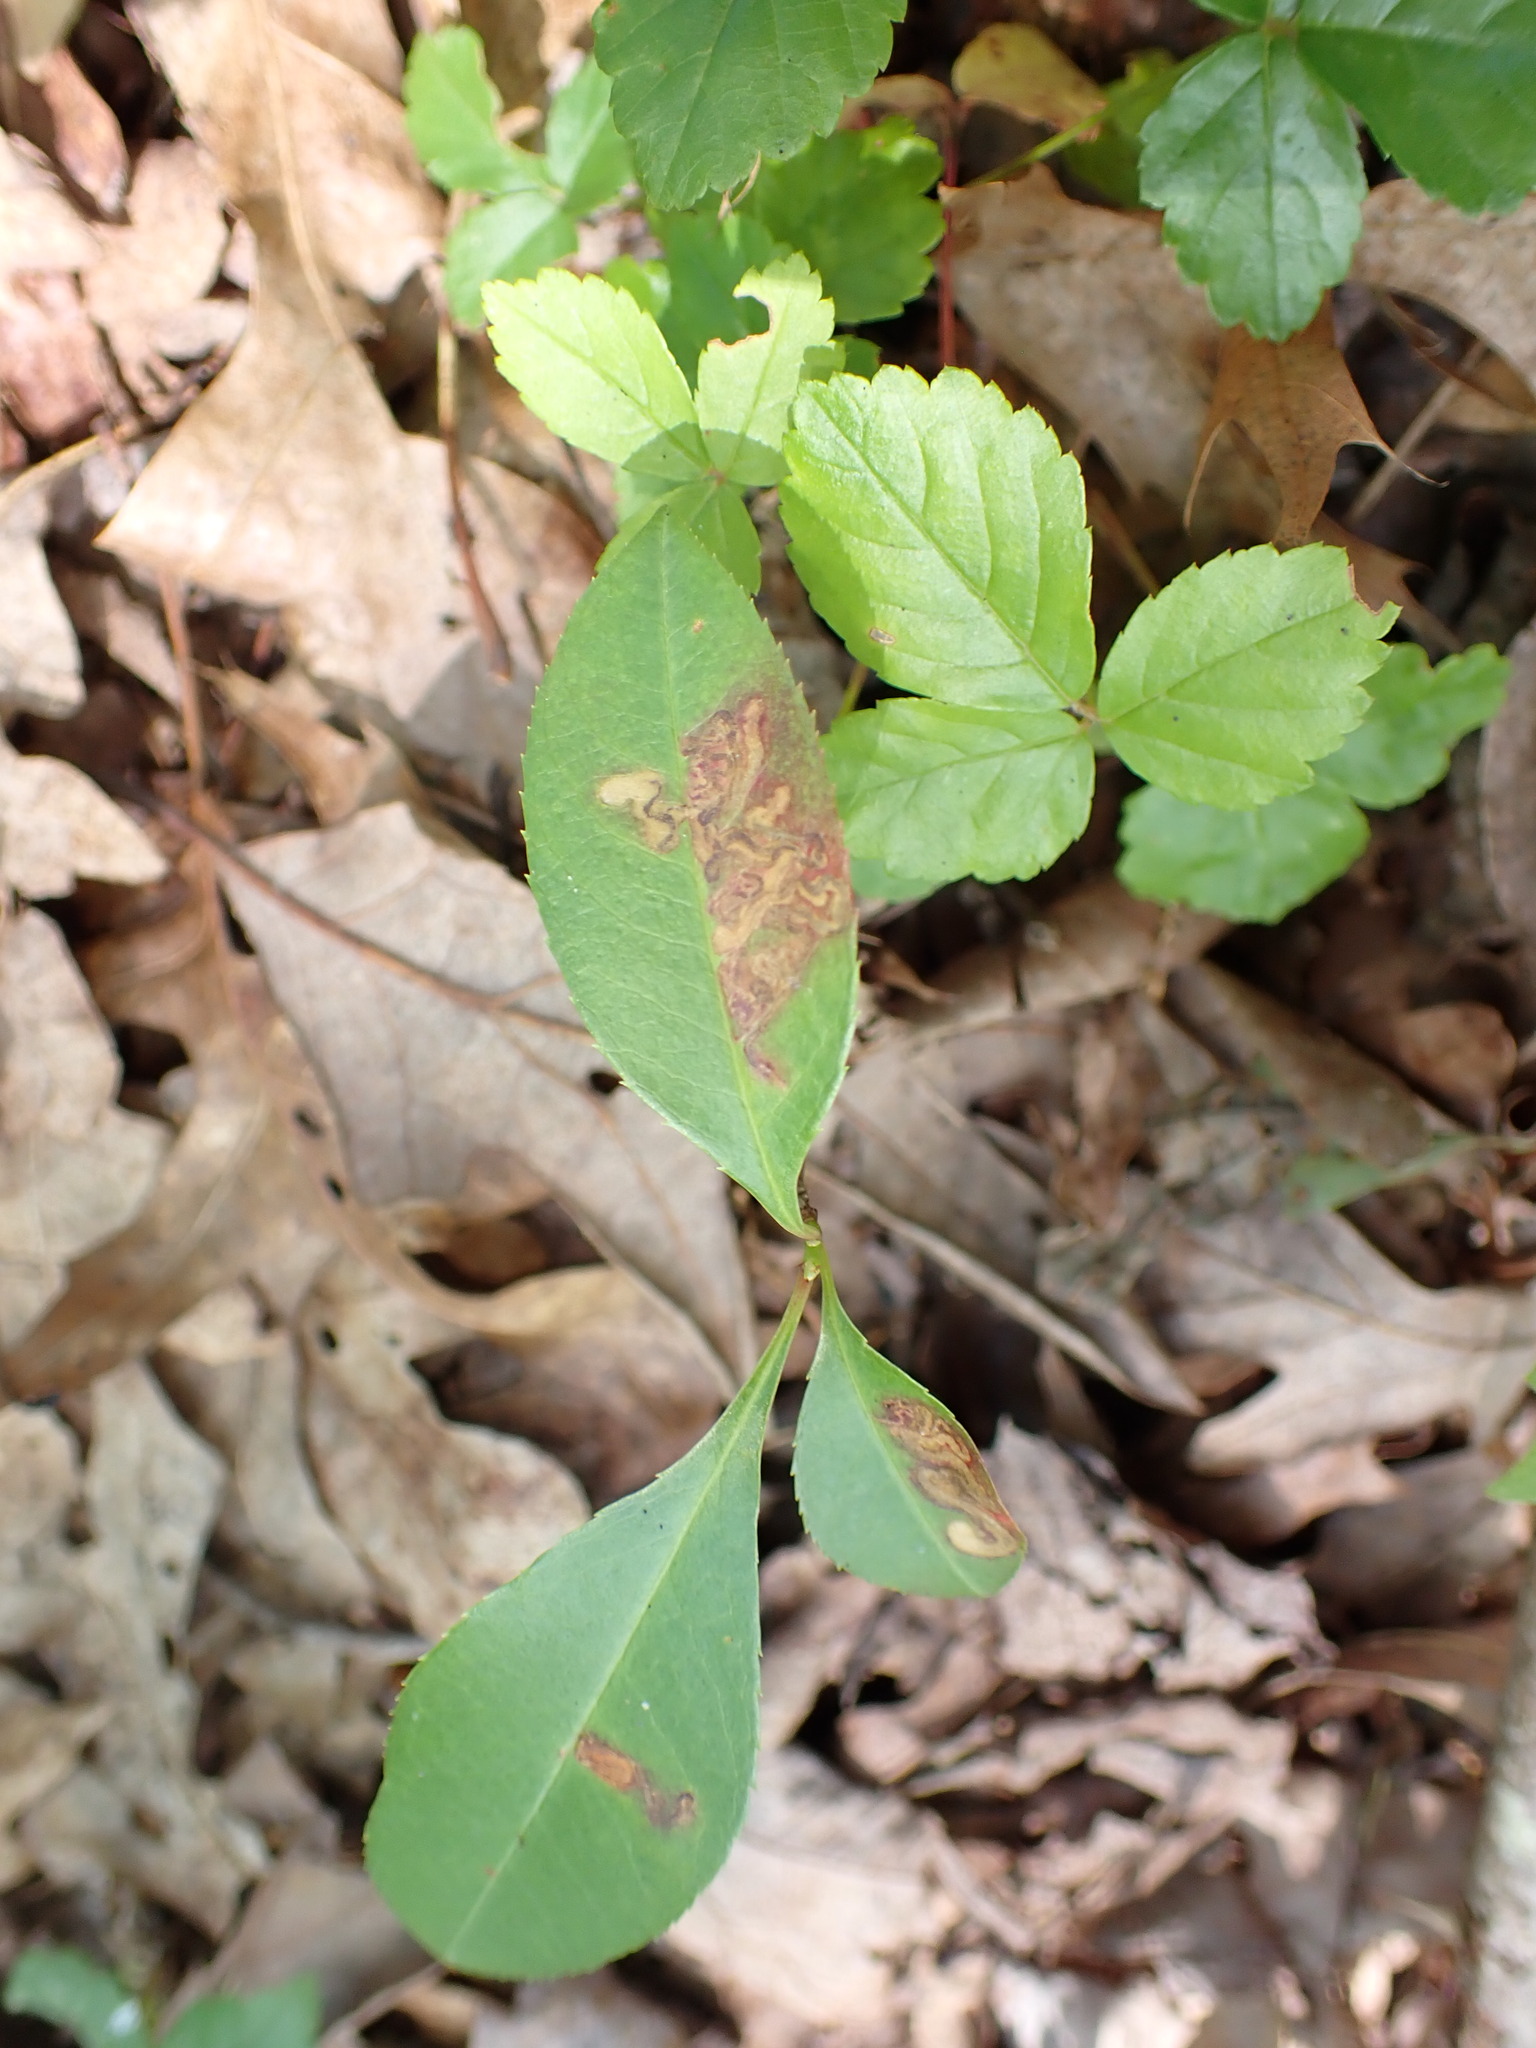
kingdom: Animalia
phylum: Arthropoda
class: Insecta
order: Lepidoptera
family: Nepticulidae
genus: Stigmella
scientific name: Stigmella prunifoliella
